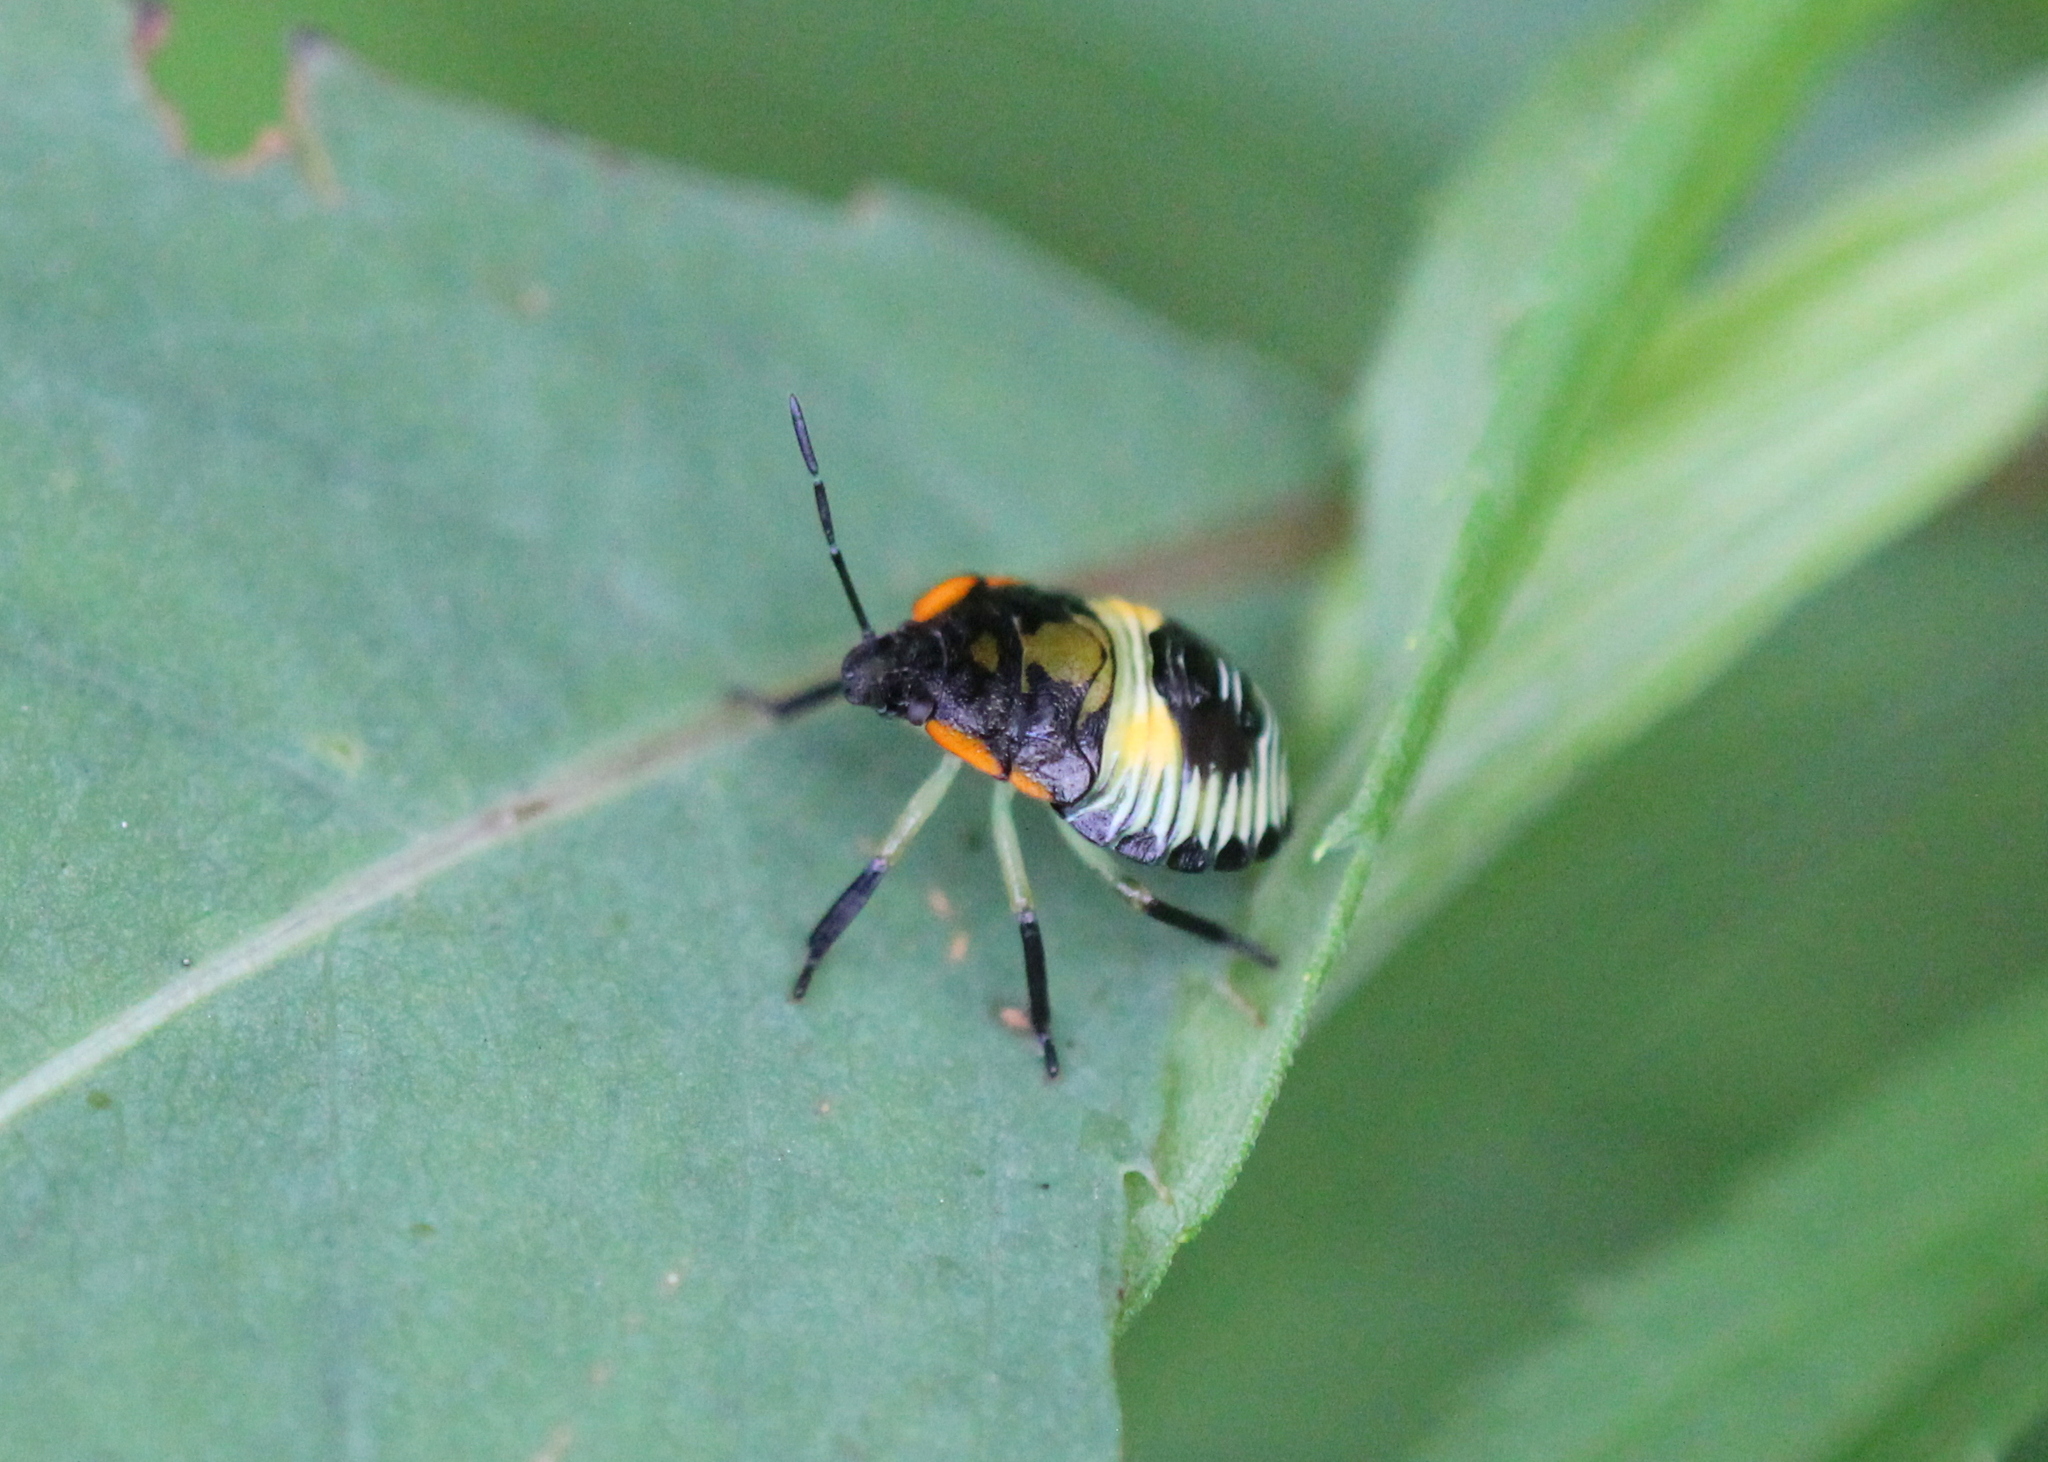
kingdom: Animalia
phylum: Arthropoda
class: Insecta
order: Hemiptera
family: Pentatomidae
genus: Chinavia
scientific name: Chinavia hilaris
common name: Green stink bug
